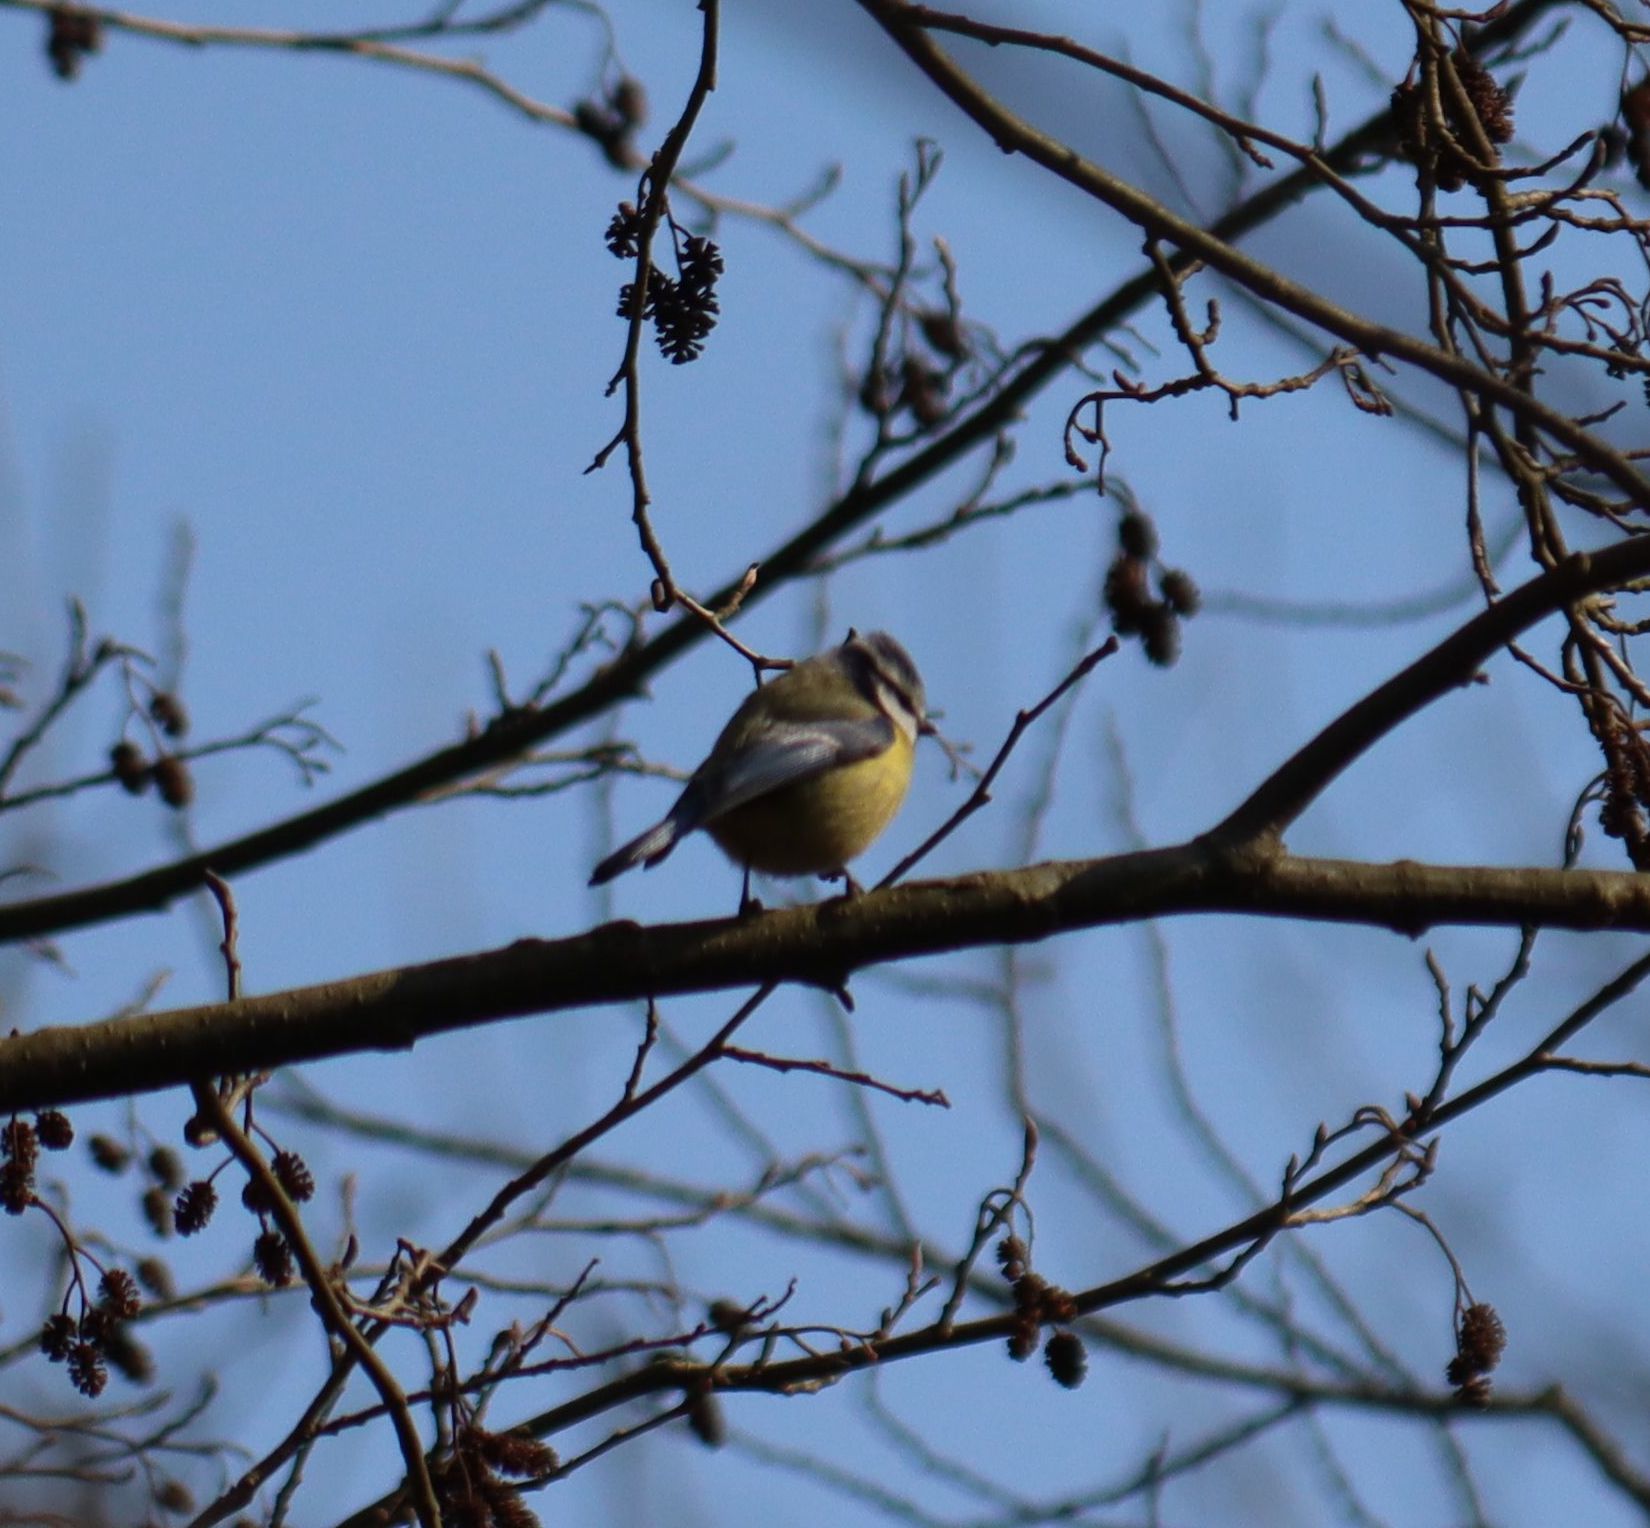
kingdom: Animalia
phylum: Chordata
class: Aves
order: Passeriformes
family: Paridae
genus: Cyanistes
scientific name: Cyanistes caeruleus
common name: Eurasian blue tit
